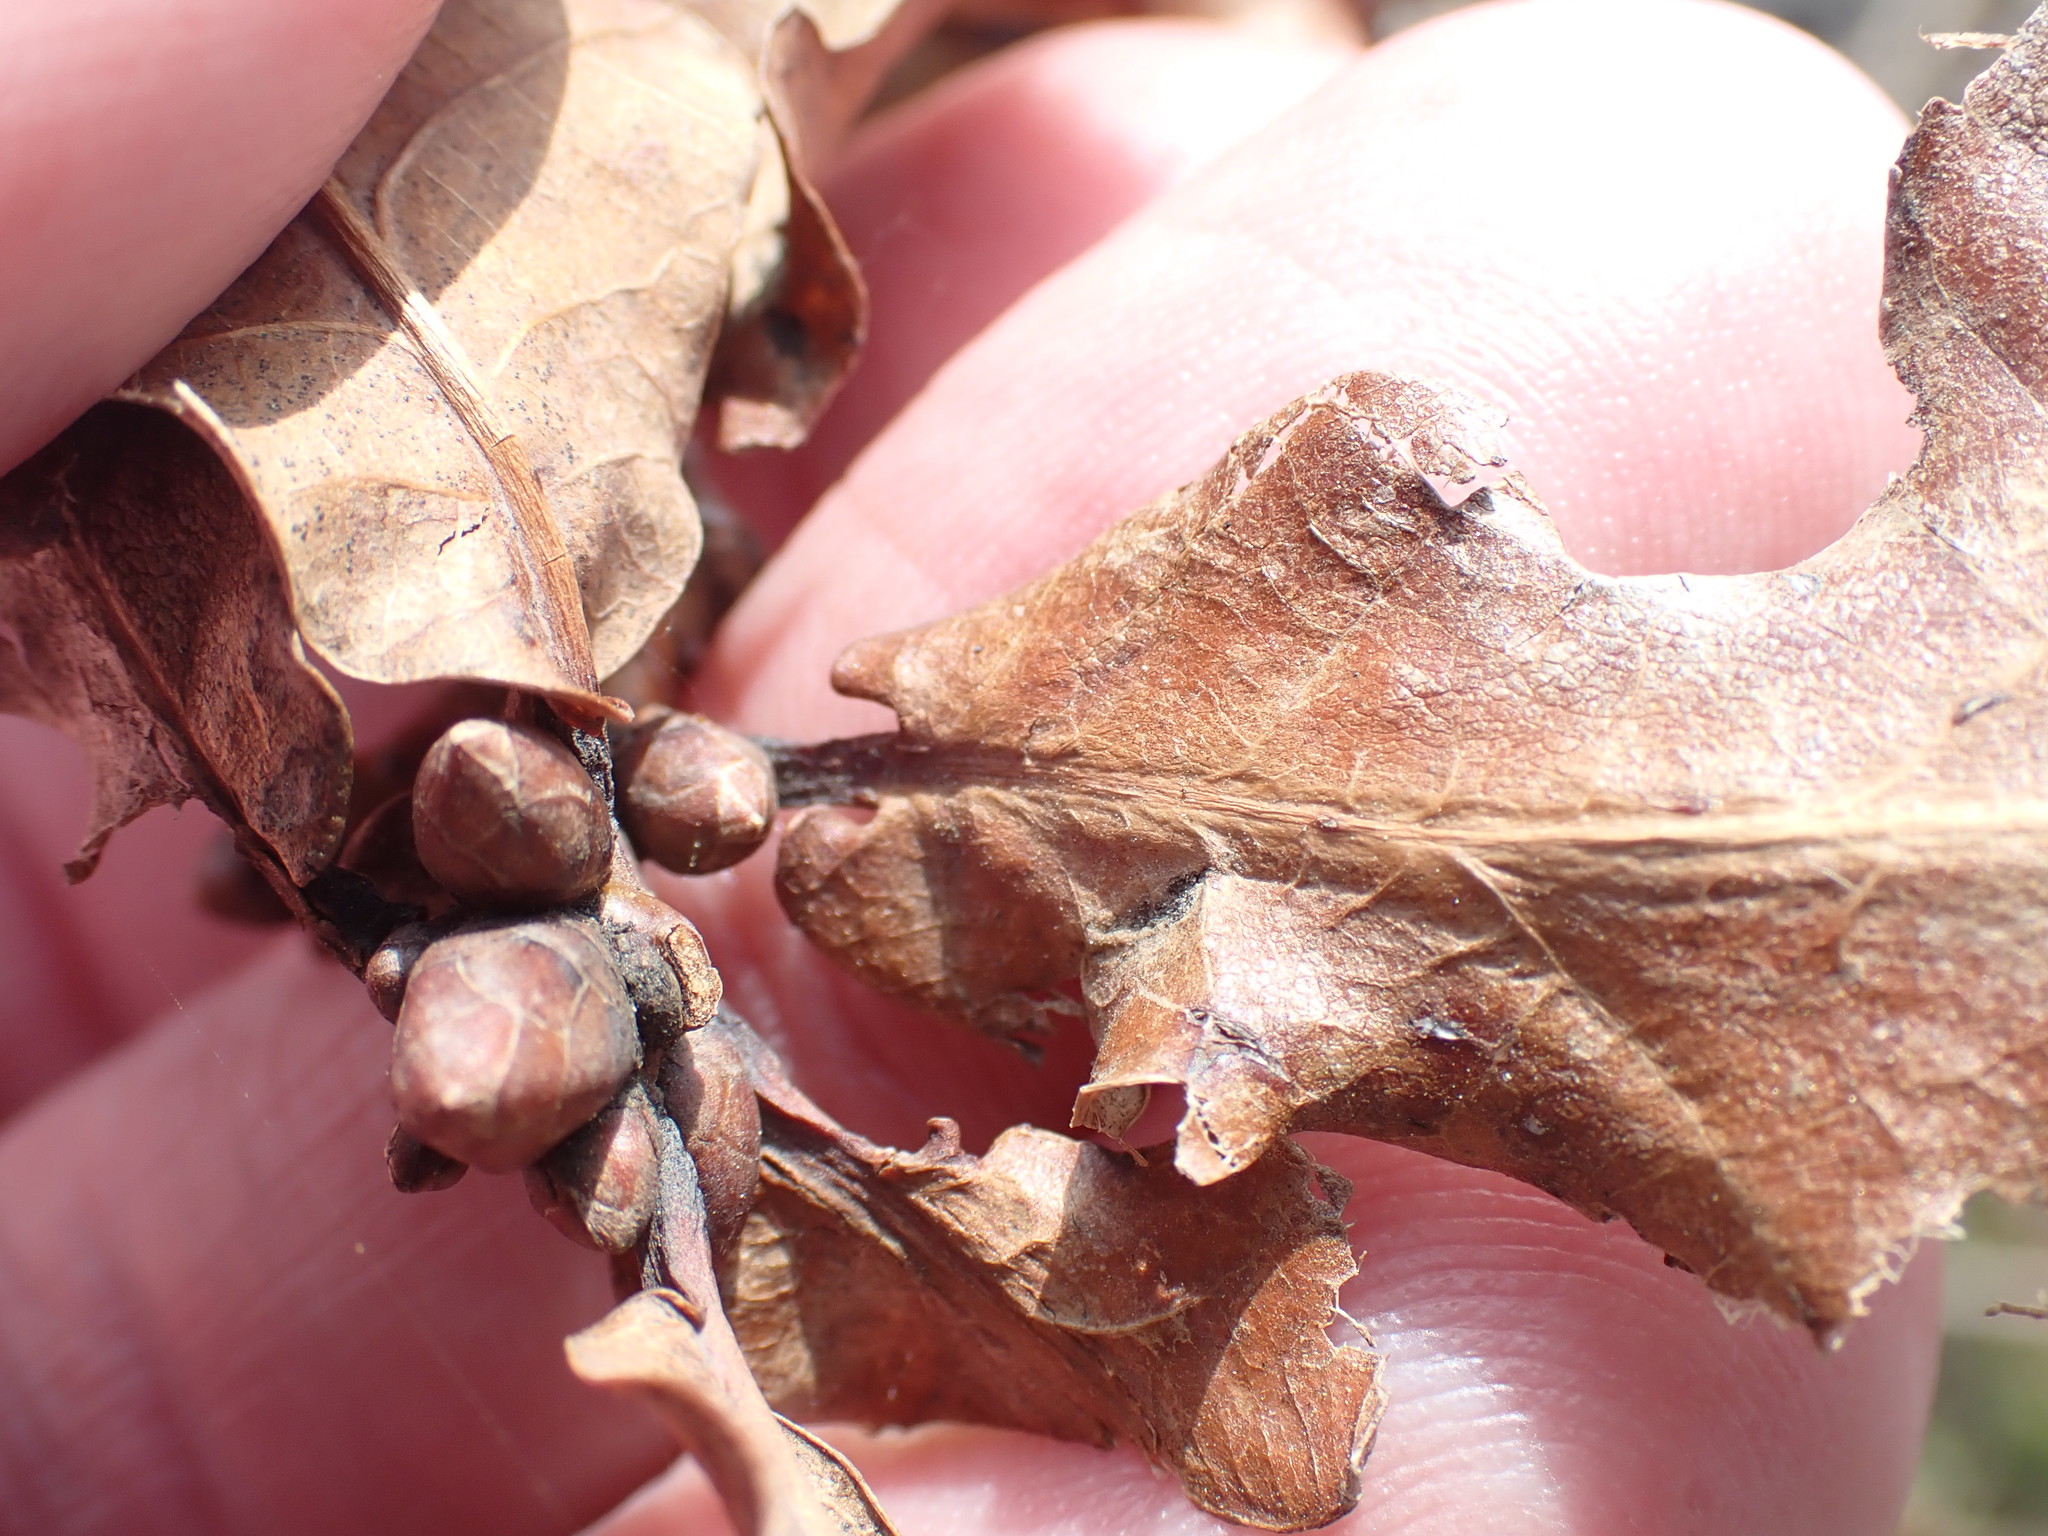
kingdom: Plantae
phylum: Tracheophyta
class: Magnoliopsida
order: Fagales
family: Fagaceae
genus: Quercus
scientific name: Quercus robur
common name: Pedunculate oak
